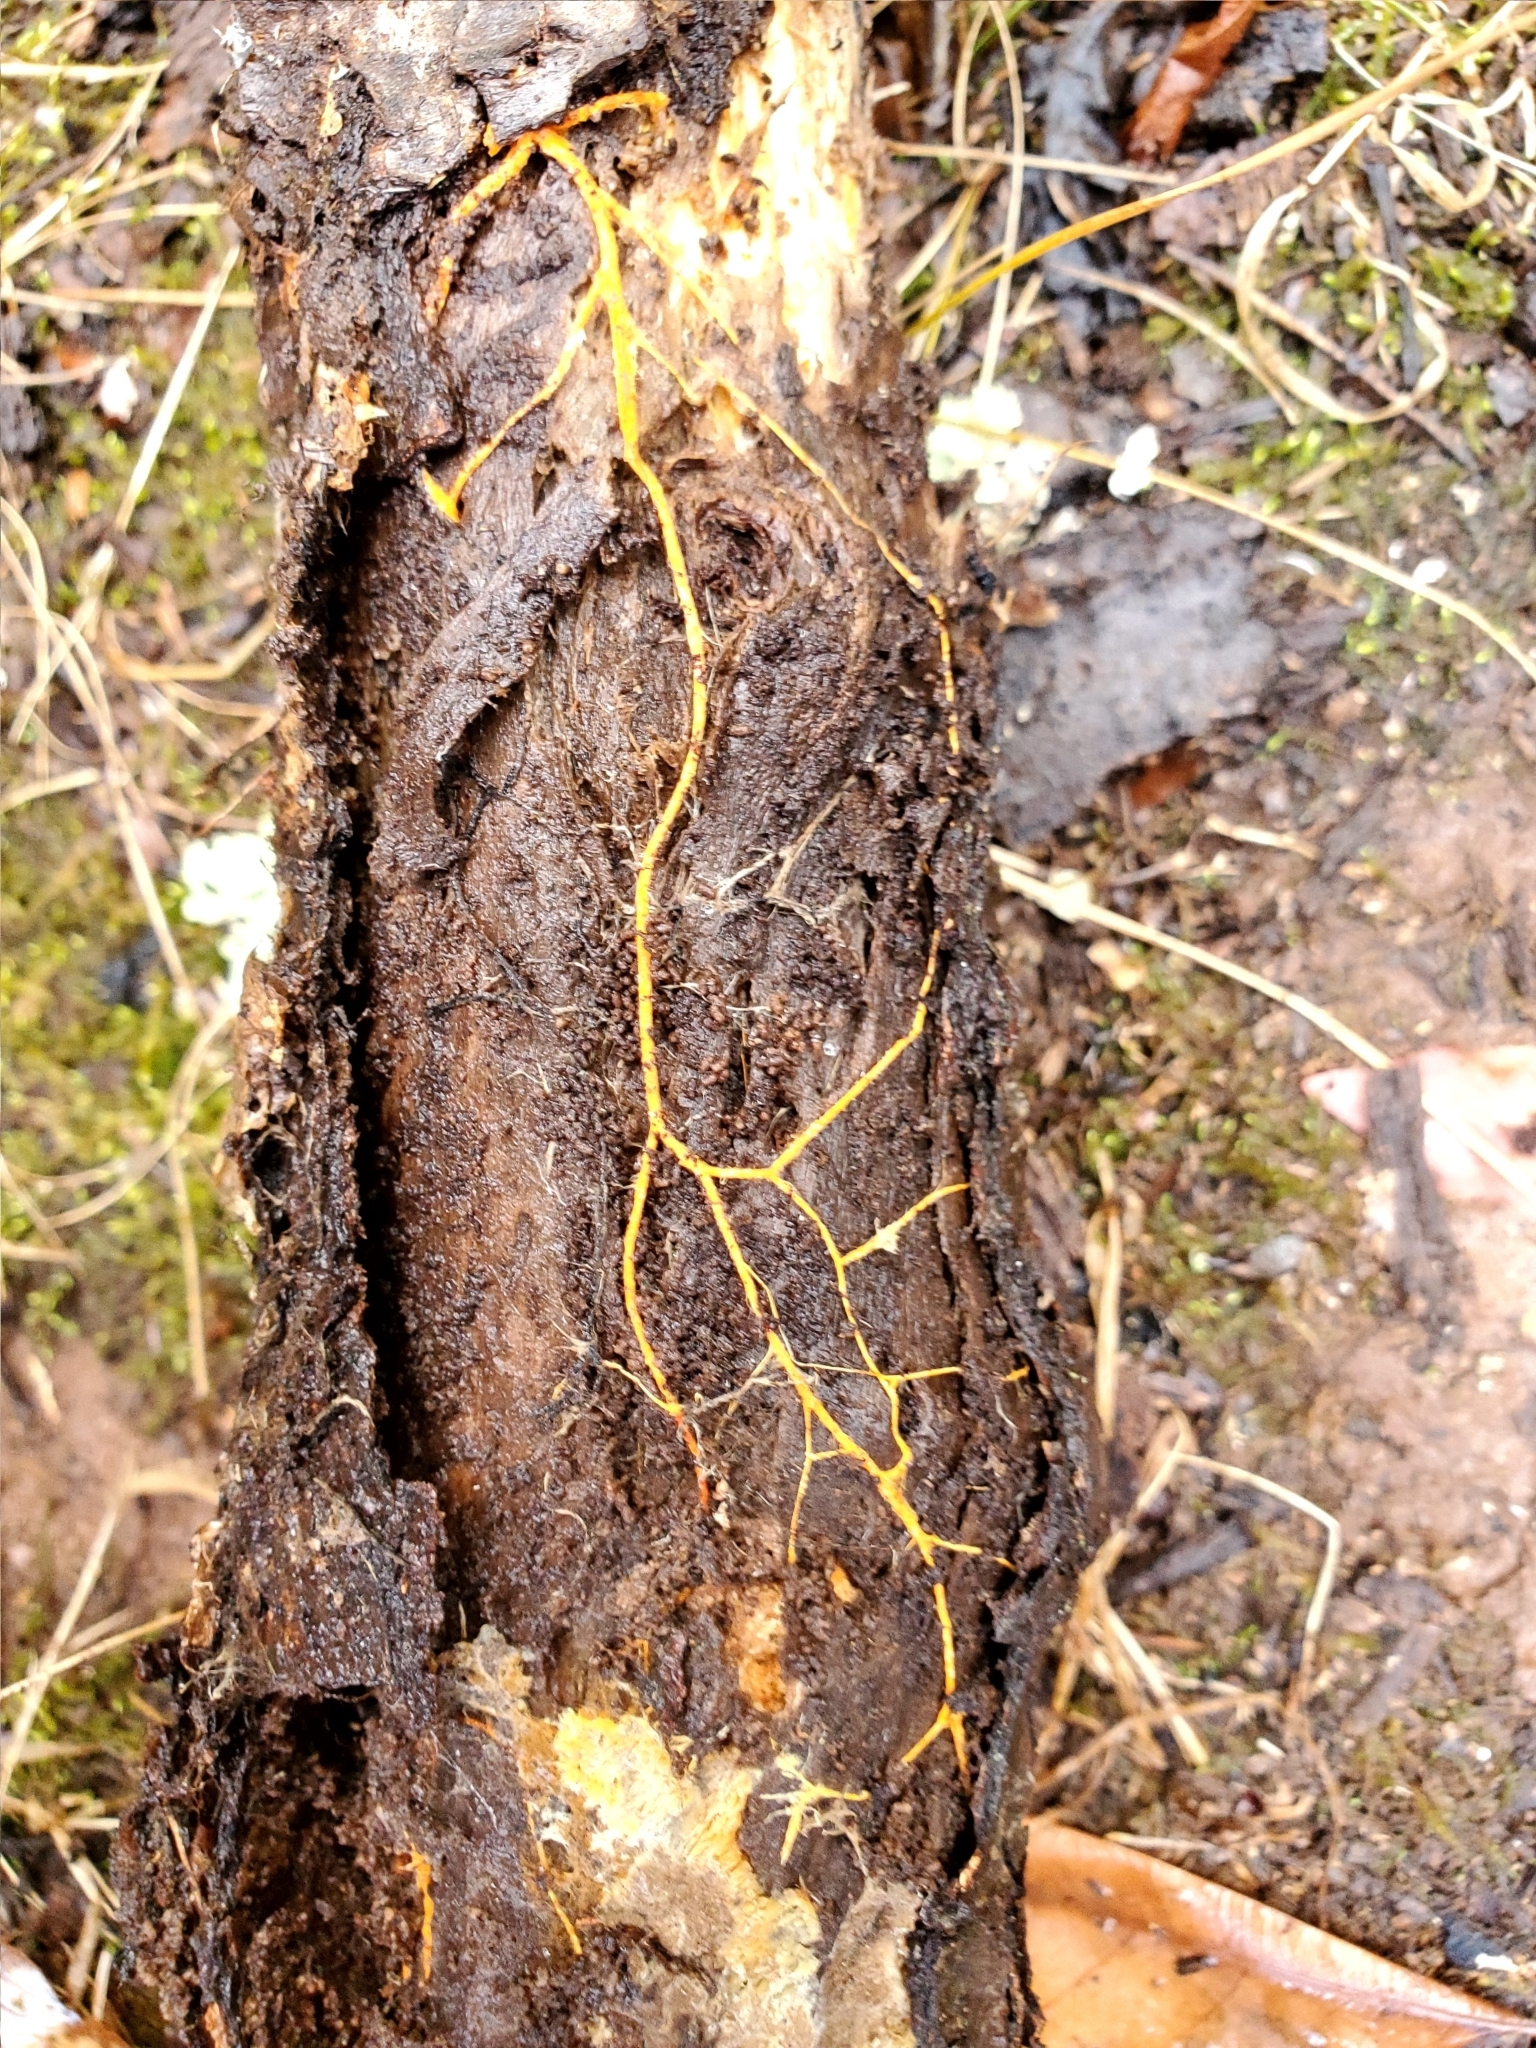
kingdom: Fungi
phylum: Basidiomycota
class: Agaricomycetes
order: Polyporales
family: Meruliaceae
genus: Hydnophlebia
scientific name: Hydnophlebia chrysorhiza
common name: Spreading yellow tooth
